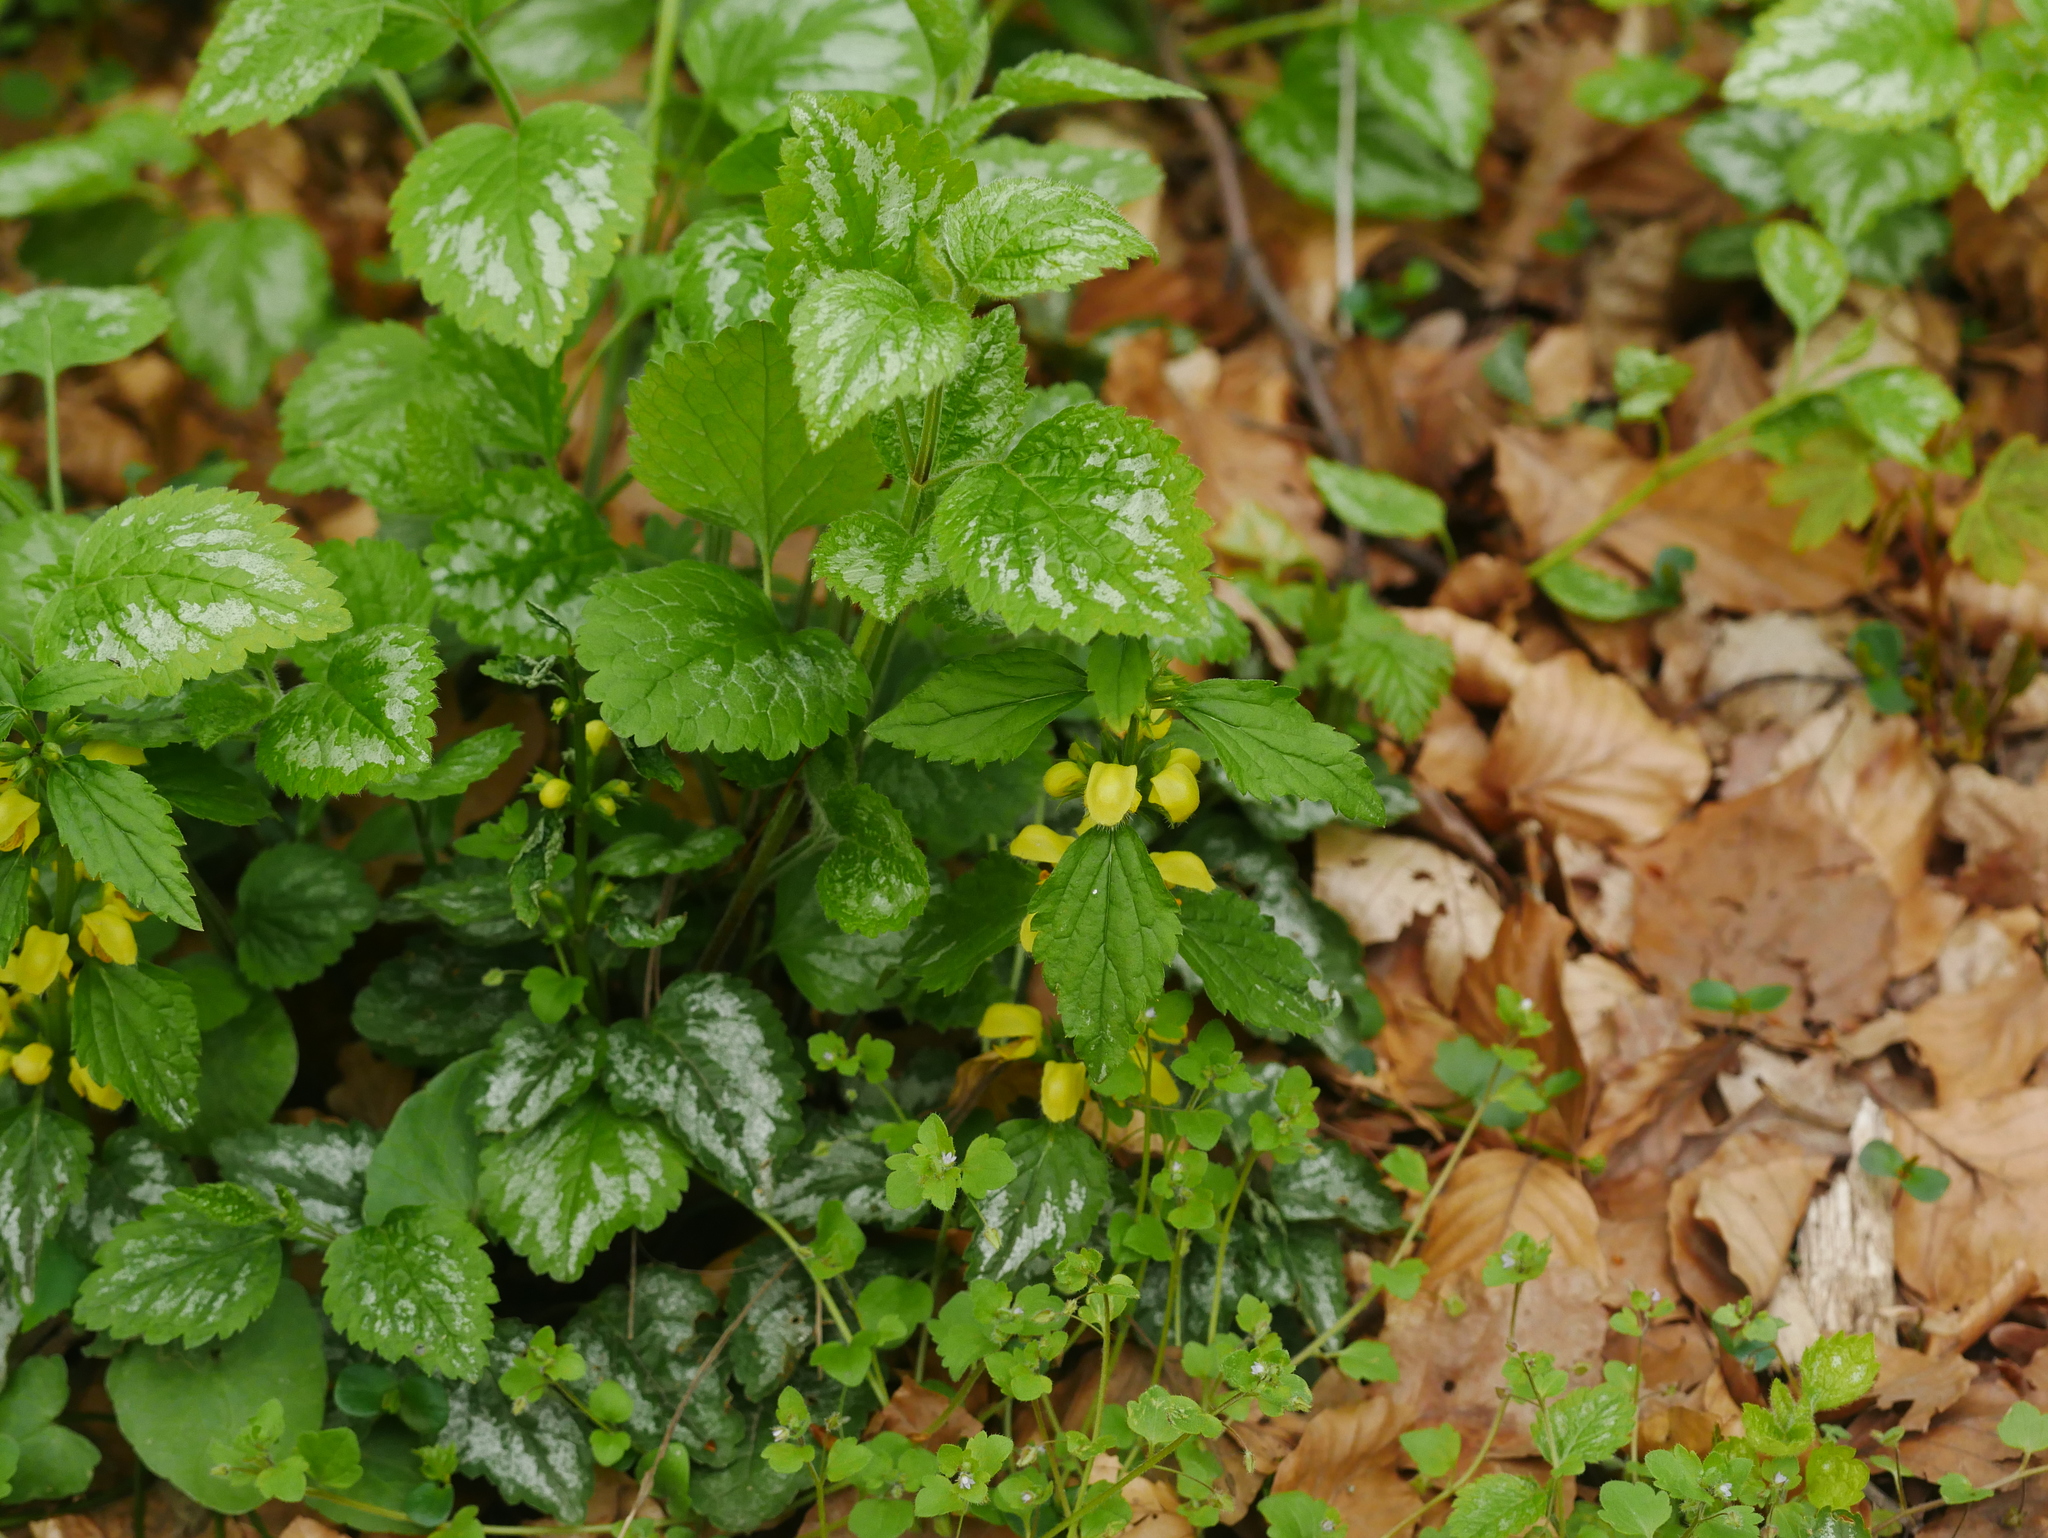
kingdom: Plantae
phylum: Tracheophyta
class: Magnoliopsida
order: Lamiales
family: Lamiaceae
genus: Lamium
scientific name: Lamium galeobdolon
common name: Yellow archangel
